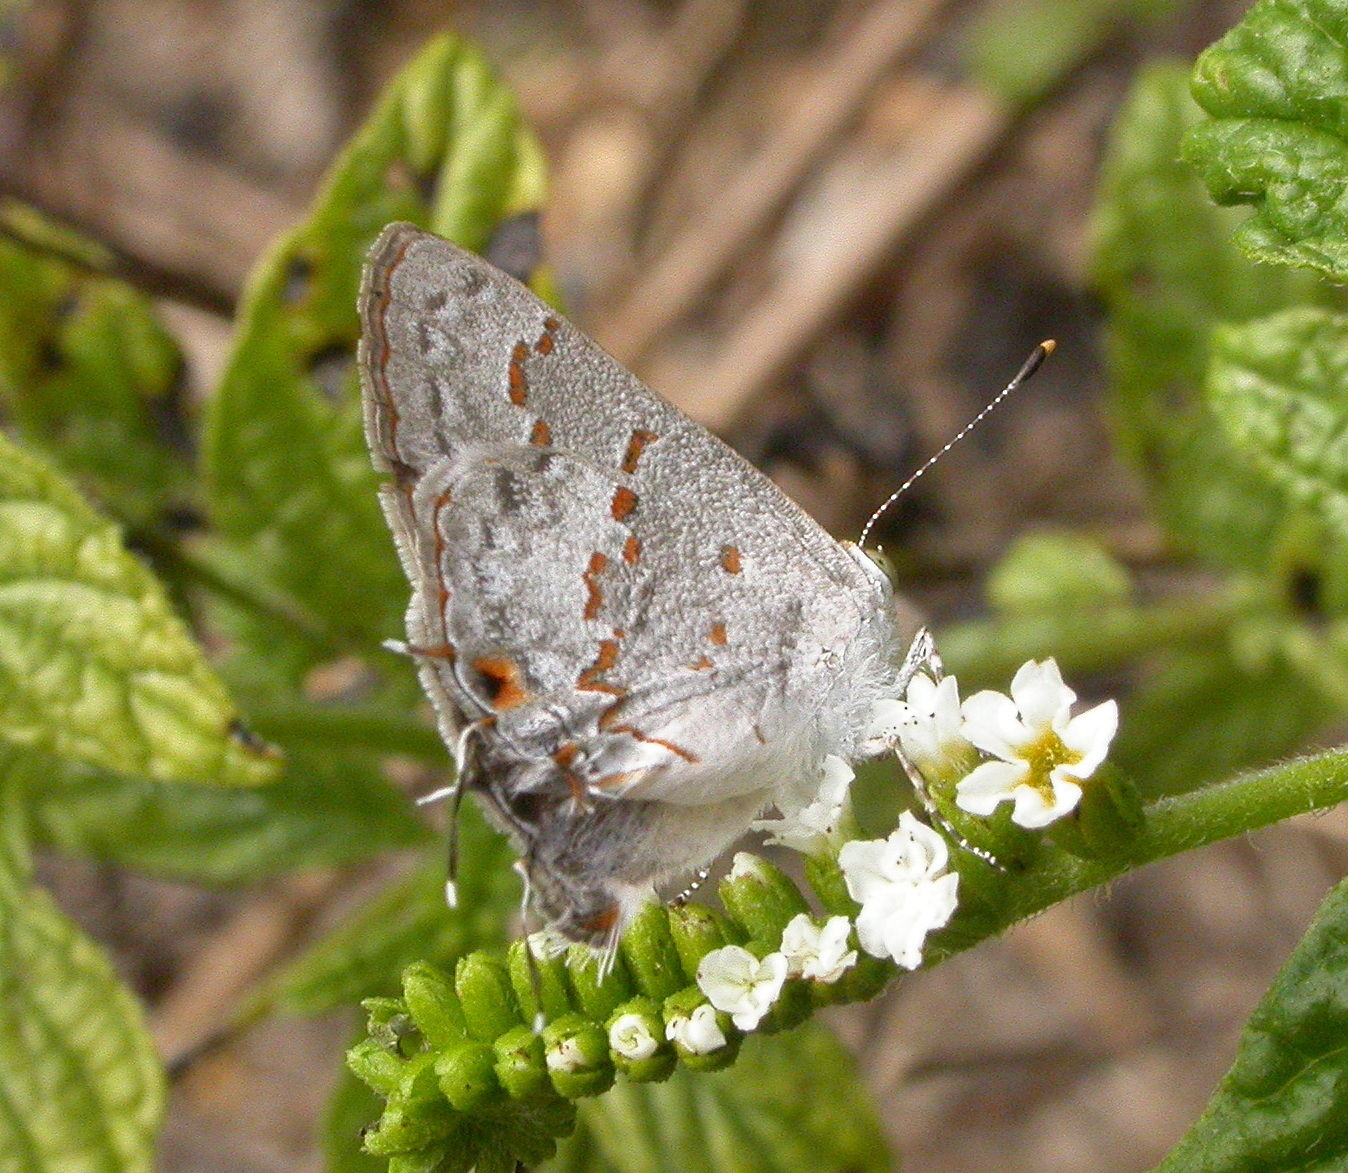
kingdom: Animalia
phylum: Arthropoda
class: Insecta
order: Lepidoptera
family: Lycaenidae
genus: Ministrymon
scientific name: Ministrymon clytie
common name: Clytie ministreak
